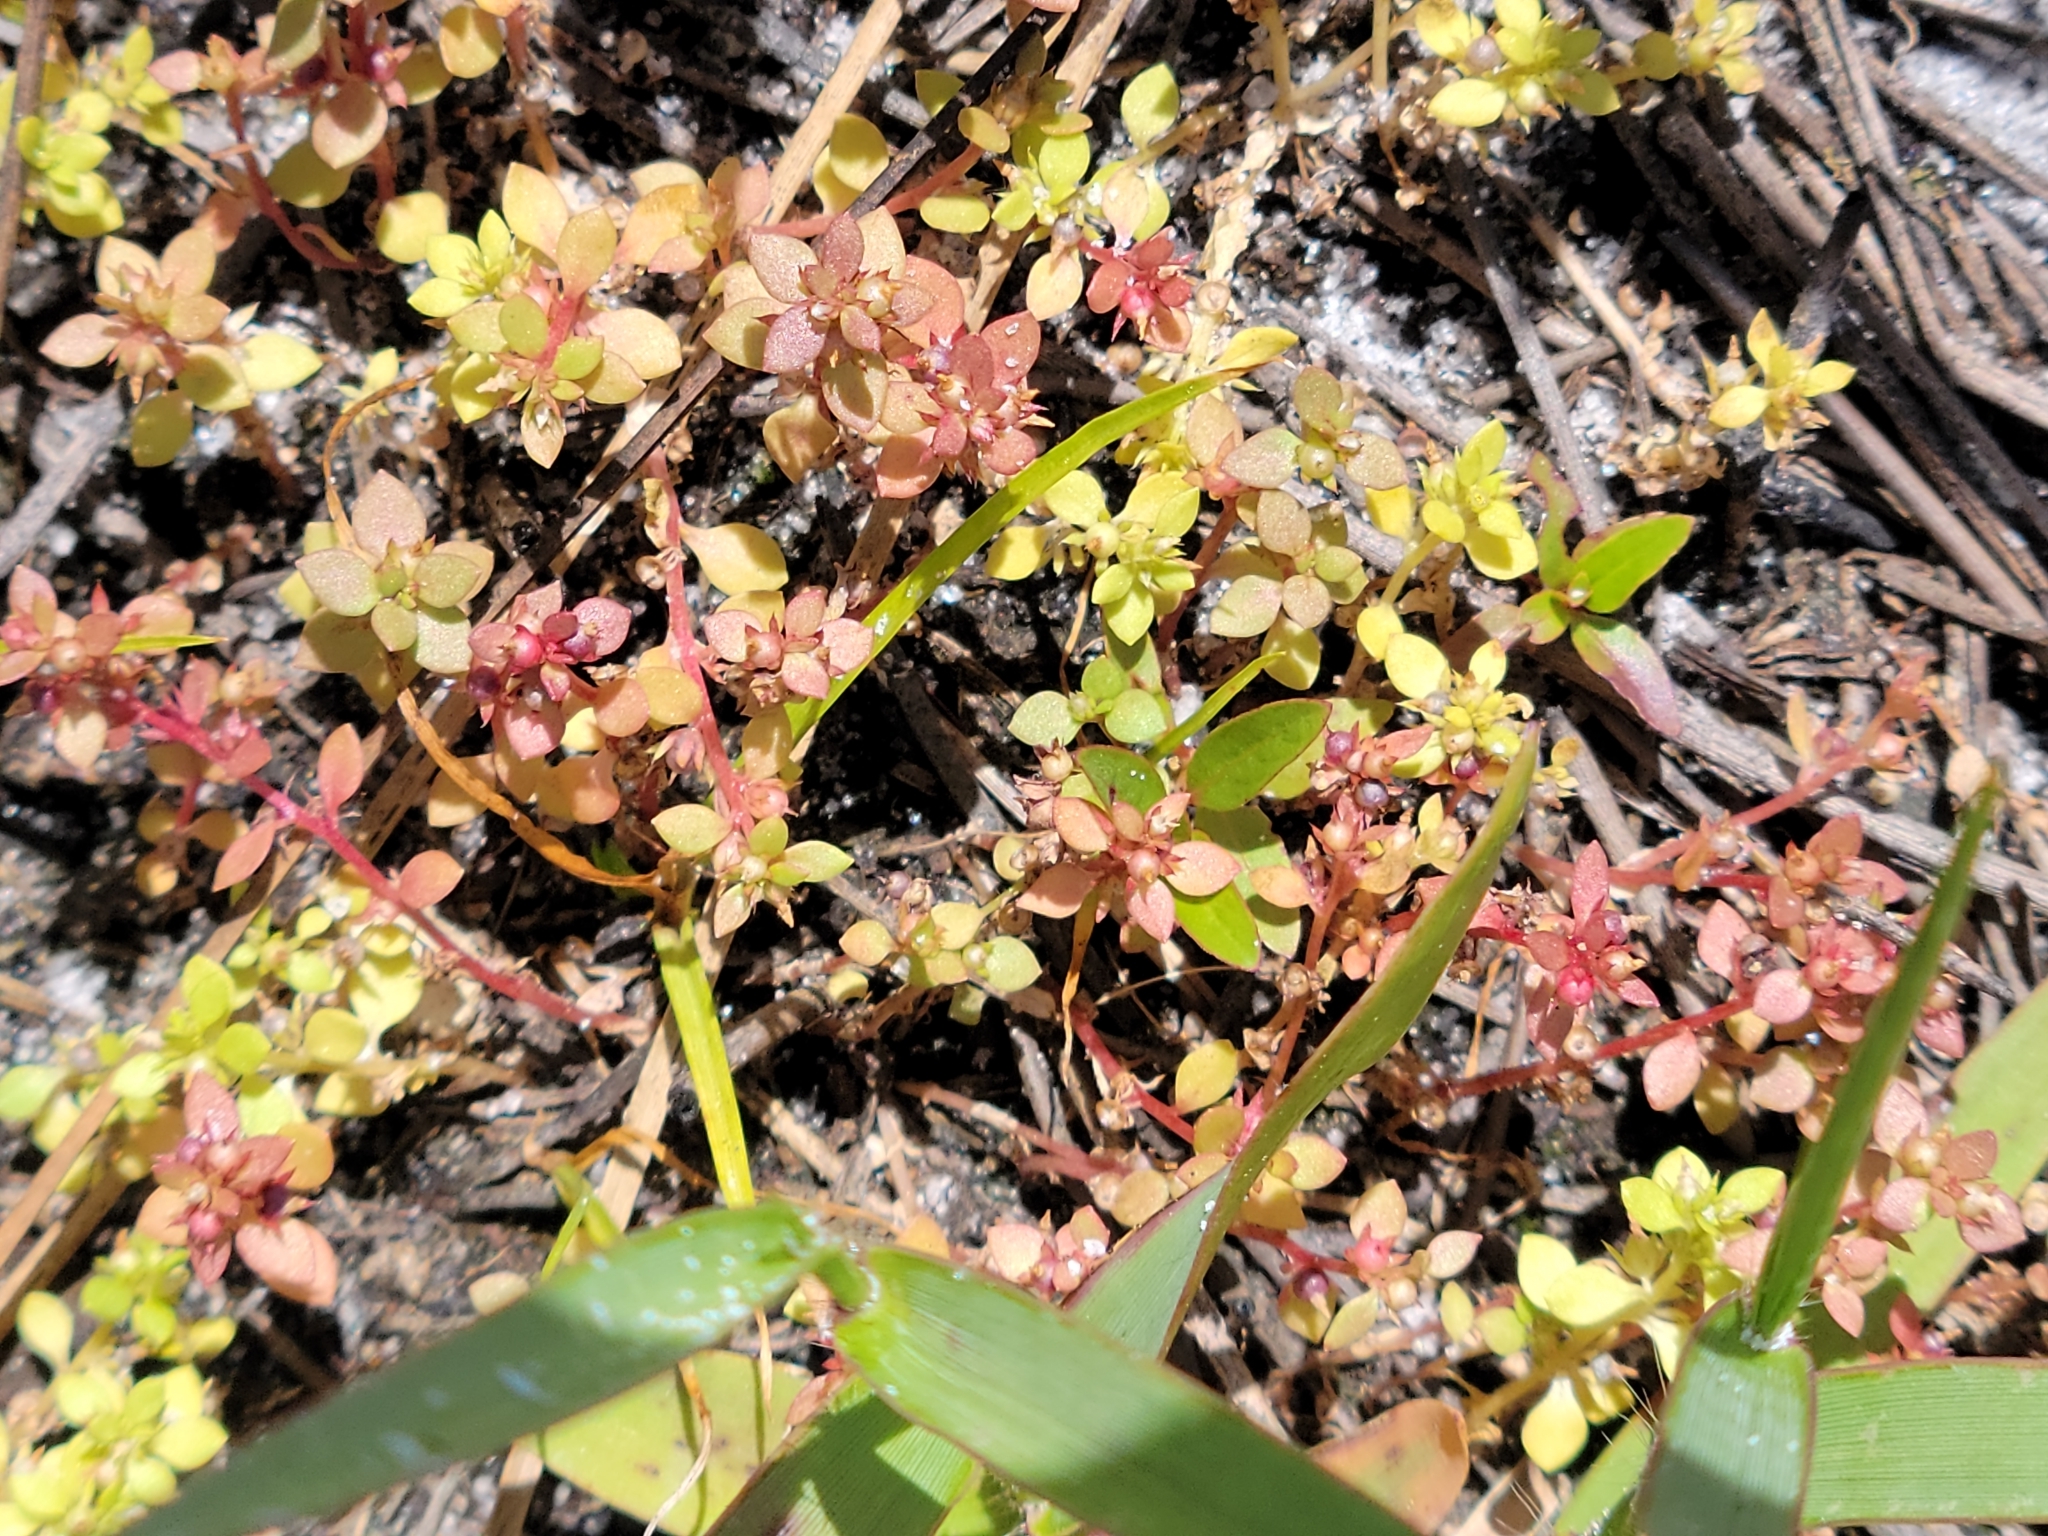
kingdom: Plantae
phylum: Tracheophyta
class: Magnoliopsida
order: Ericales
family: Primulaceae
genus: Lysimachia
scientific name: Lysimachia minima
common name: Chaffweed
